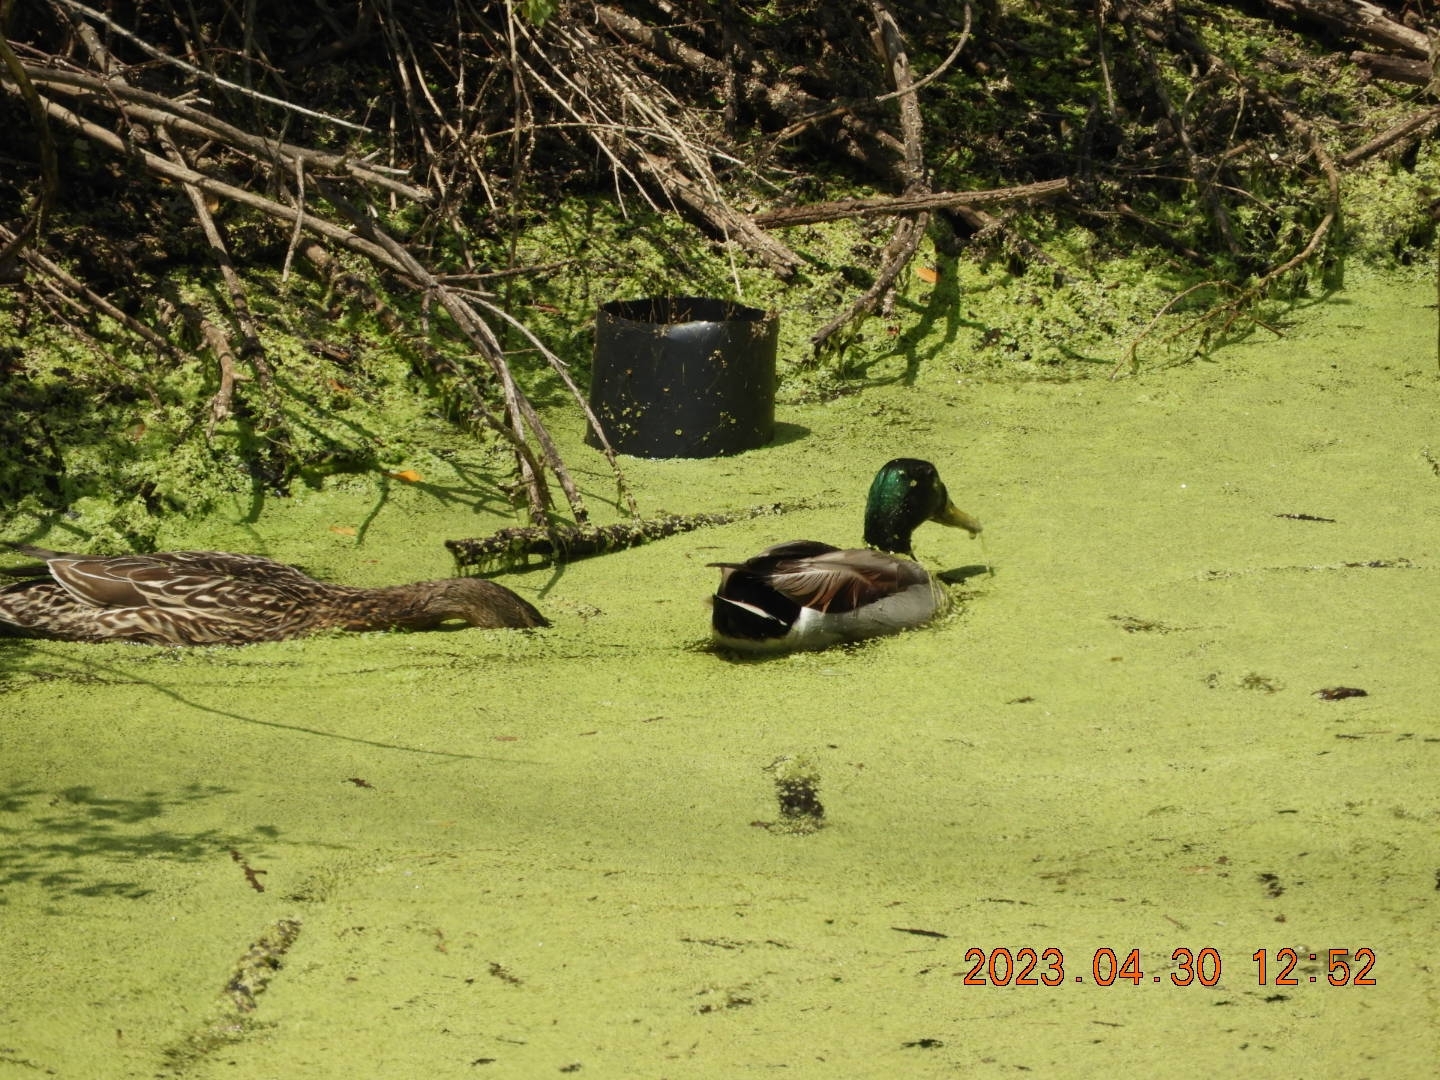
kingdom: Animalia
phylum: Chordata
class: Aves
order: Anseriformes
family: Anatidae
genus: Anas
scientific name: Anas platyrhynchos
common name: Mallard
